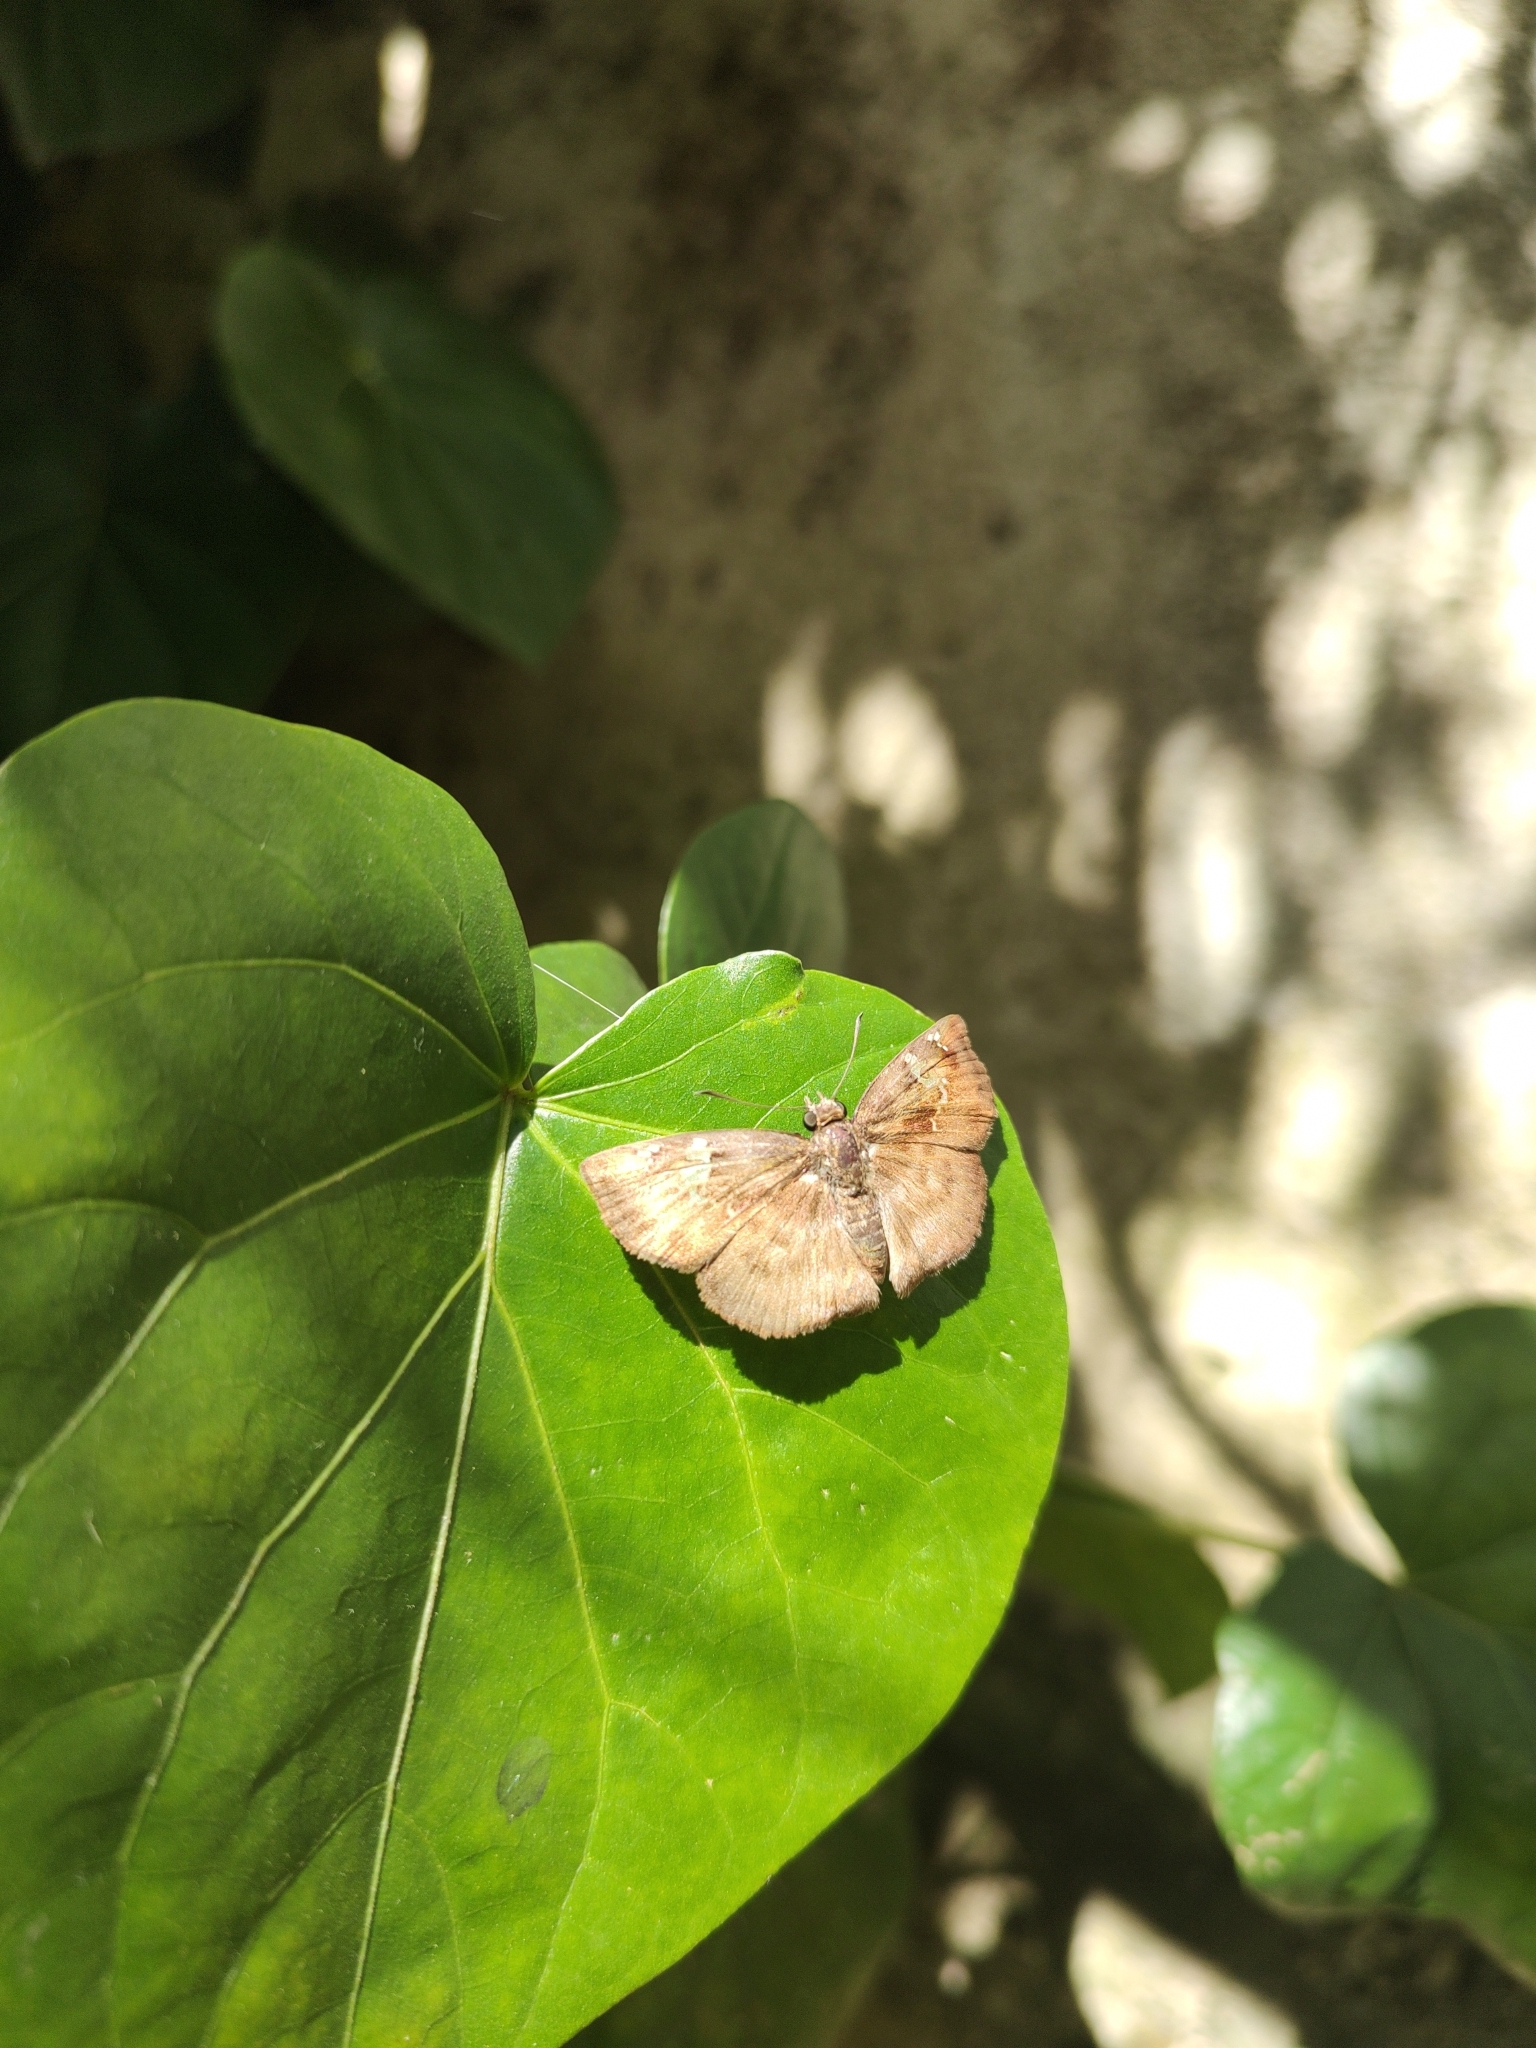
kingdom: Animalia
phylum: Arthropoda
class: Insecta
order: Lepidoptera
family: Hesperiidae
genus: Quadrus
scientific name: Quadrus ulucida
